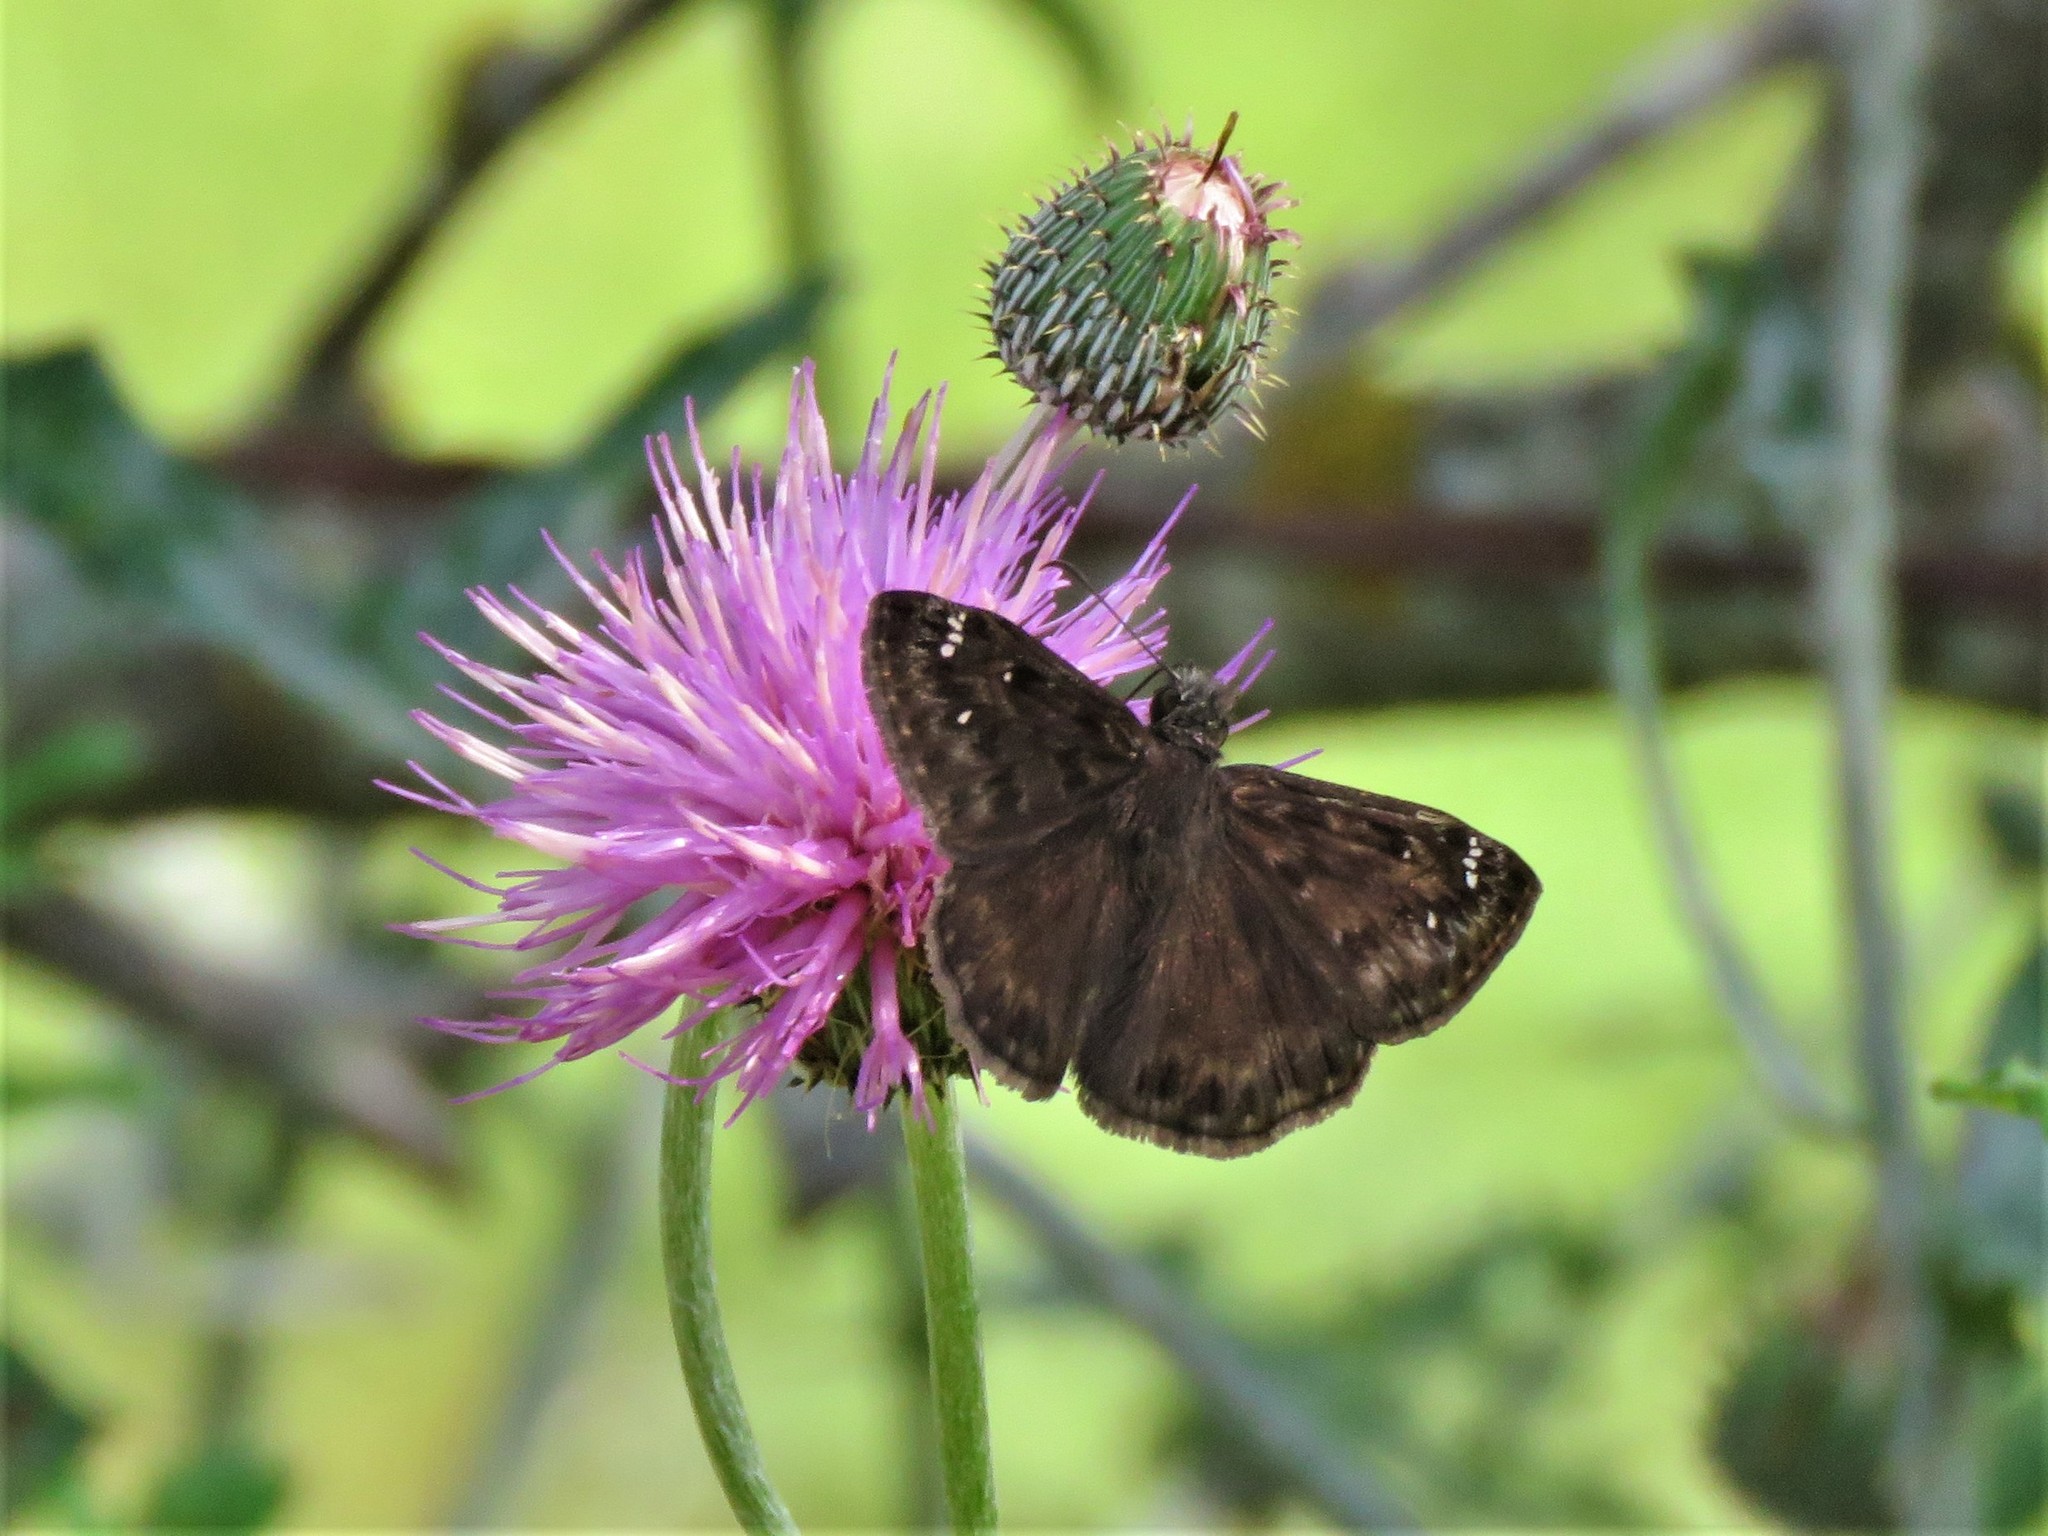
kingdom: Animalia
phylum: Arthropoda
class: Insecta
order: Lepidoptera
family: Hesperiidae
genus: Erynnis
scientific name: Erynnis horatius
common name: Horace's duskywing
